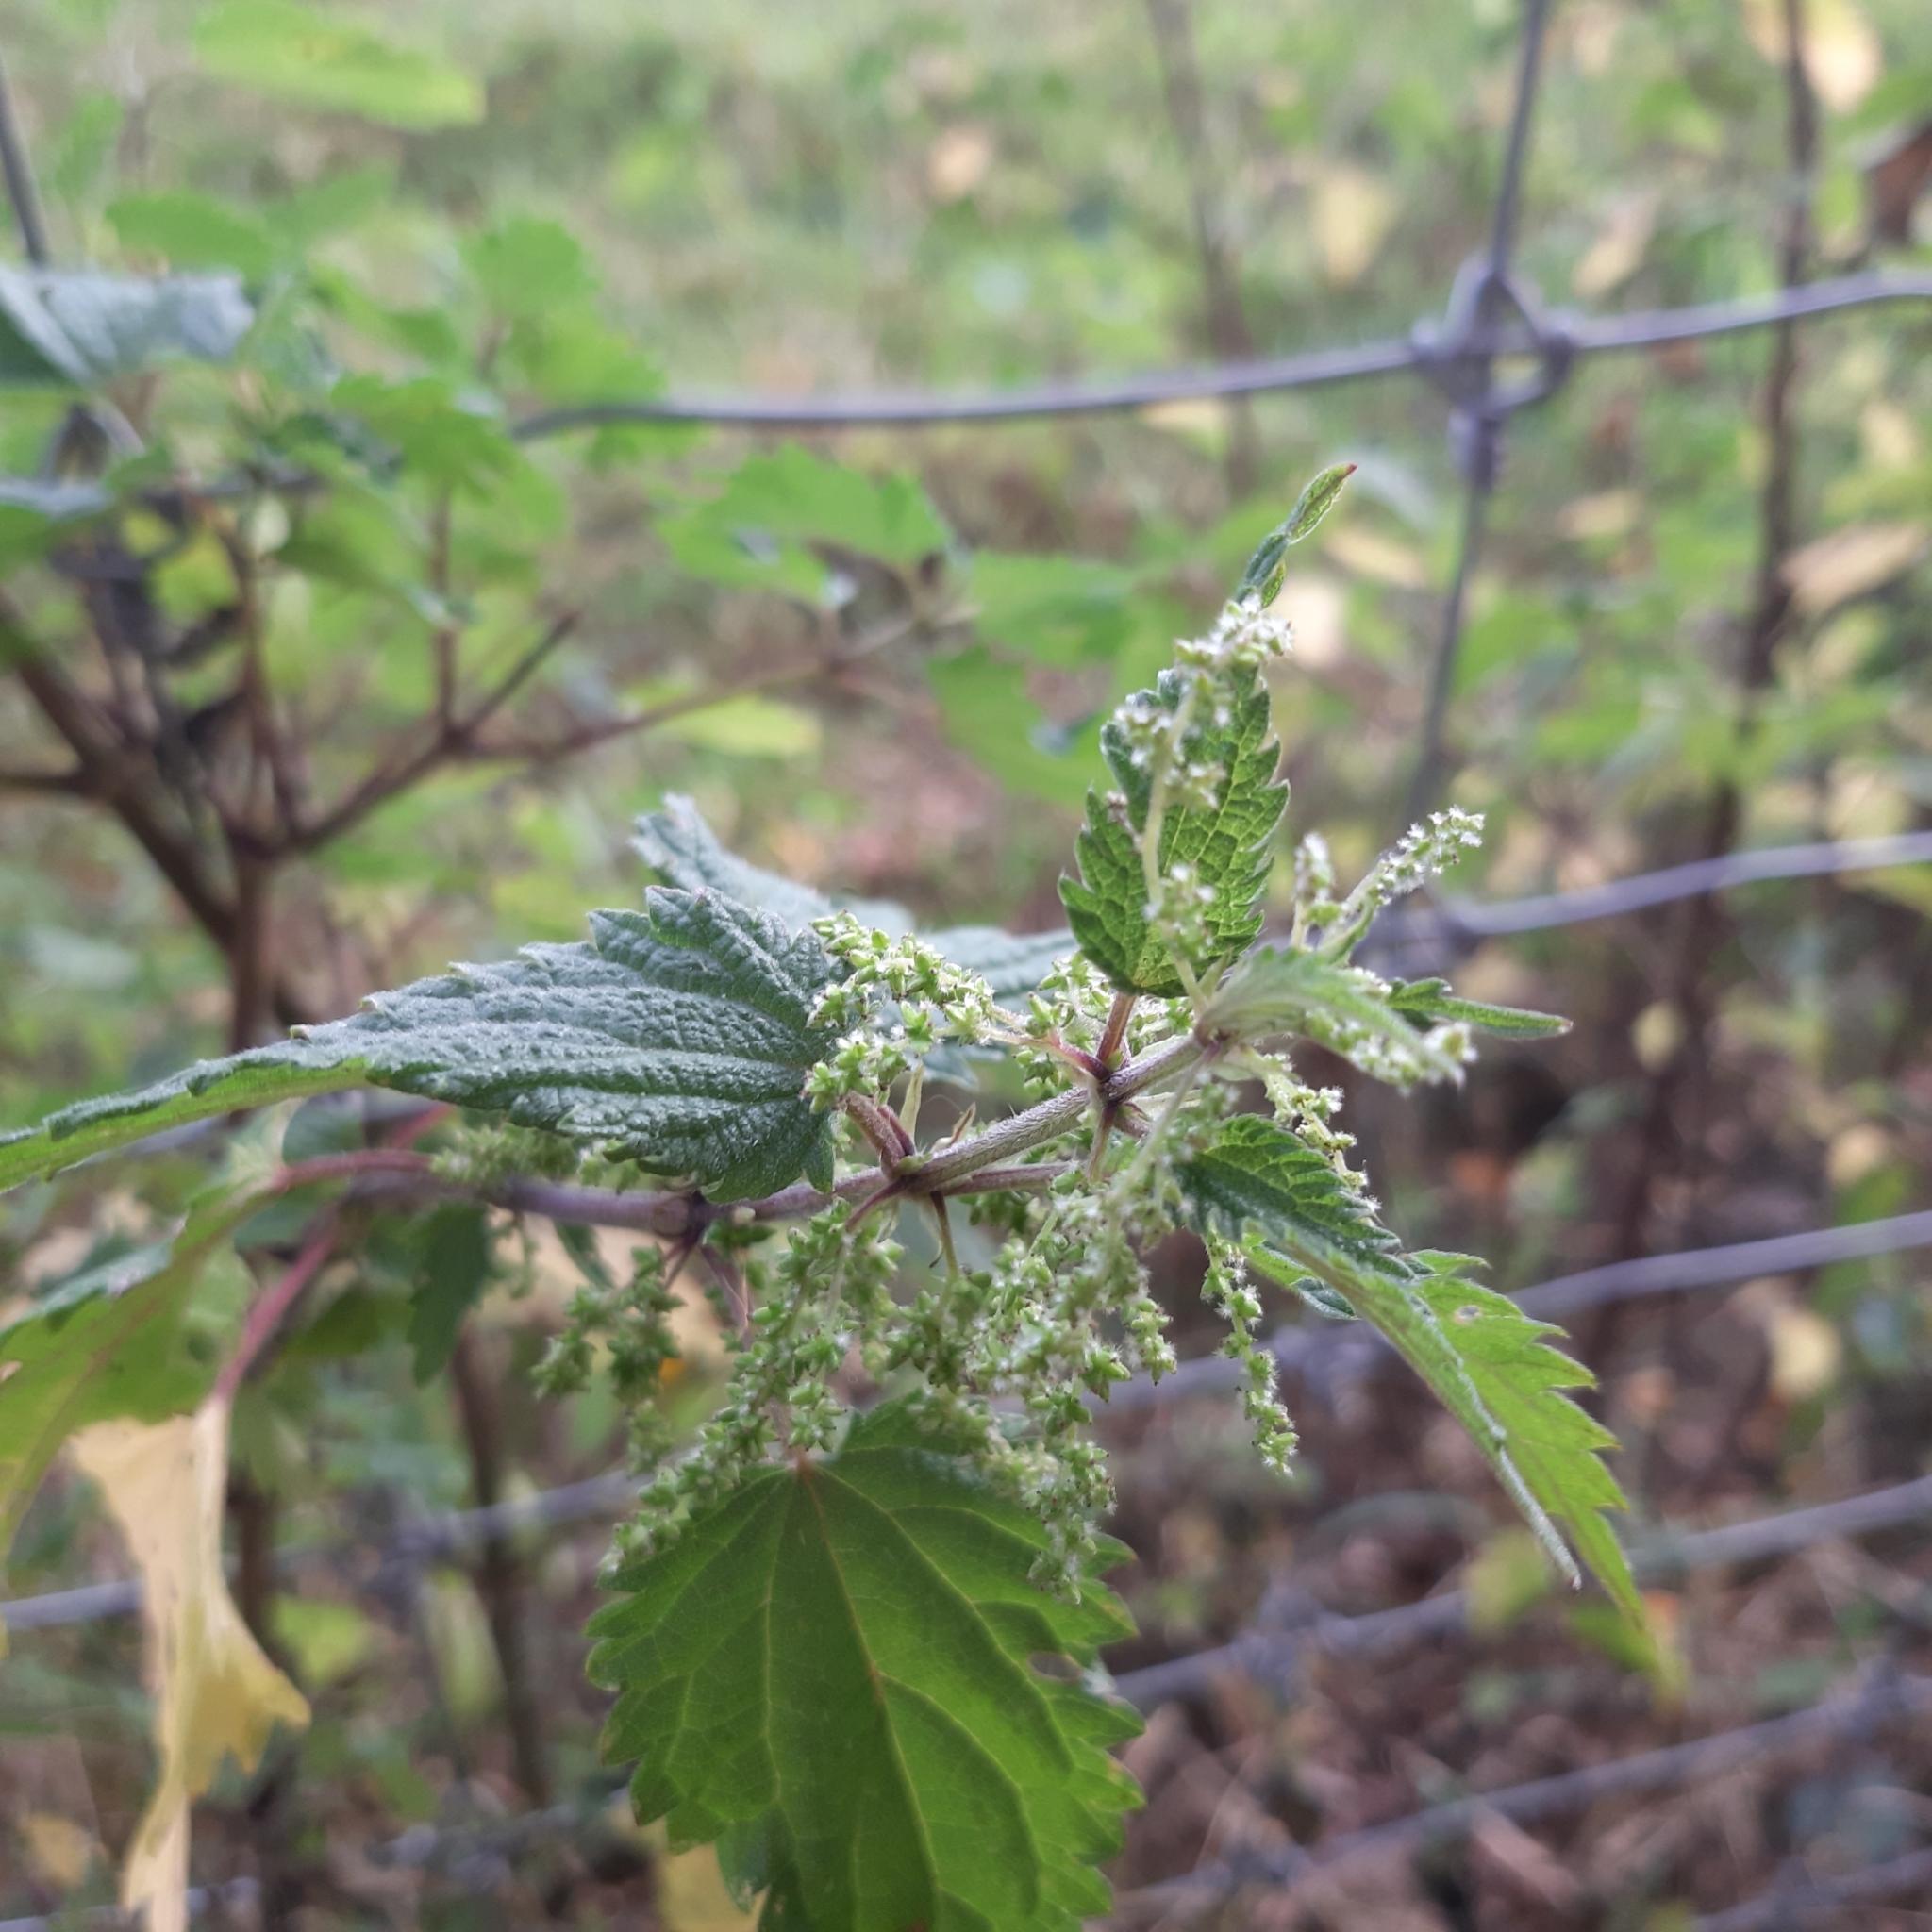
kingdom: Plantae
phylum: Tracheophyta
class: Magnoliopsida
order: Rosales
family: Urticaceae
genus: Urtica
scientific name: Urtica dioica
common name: Common nettle
